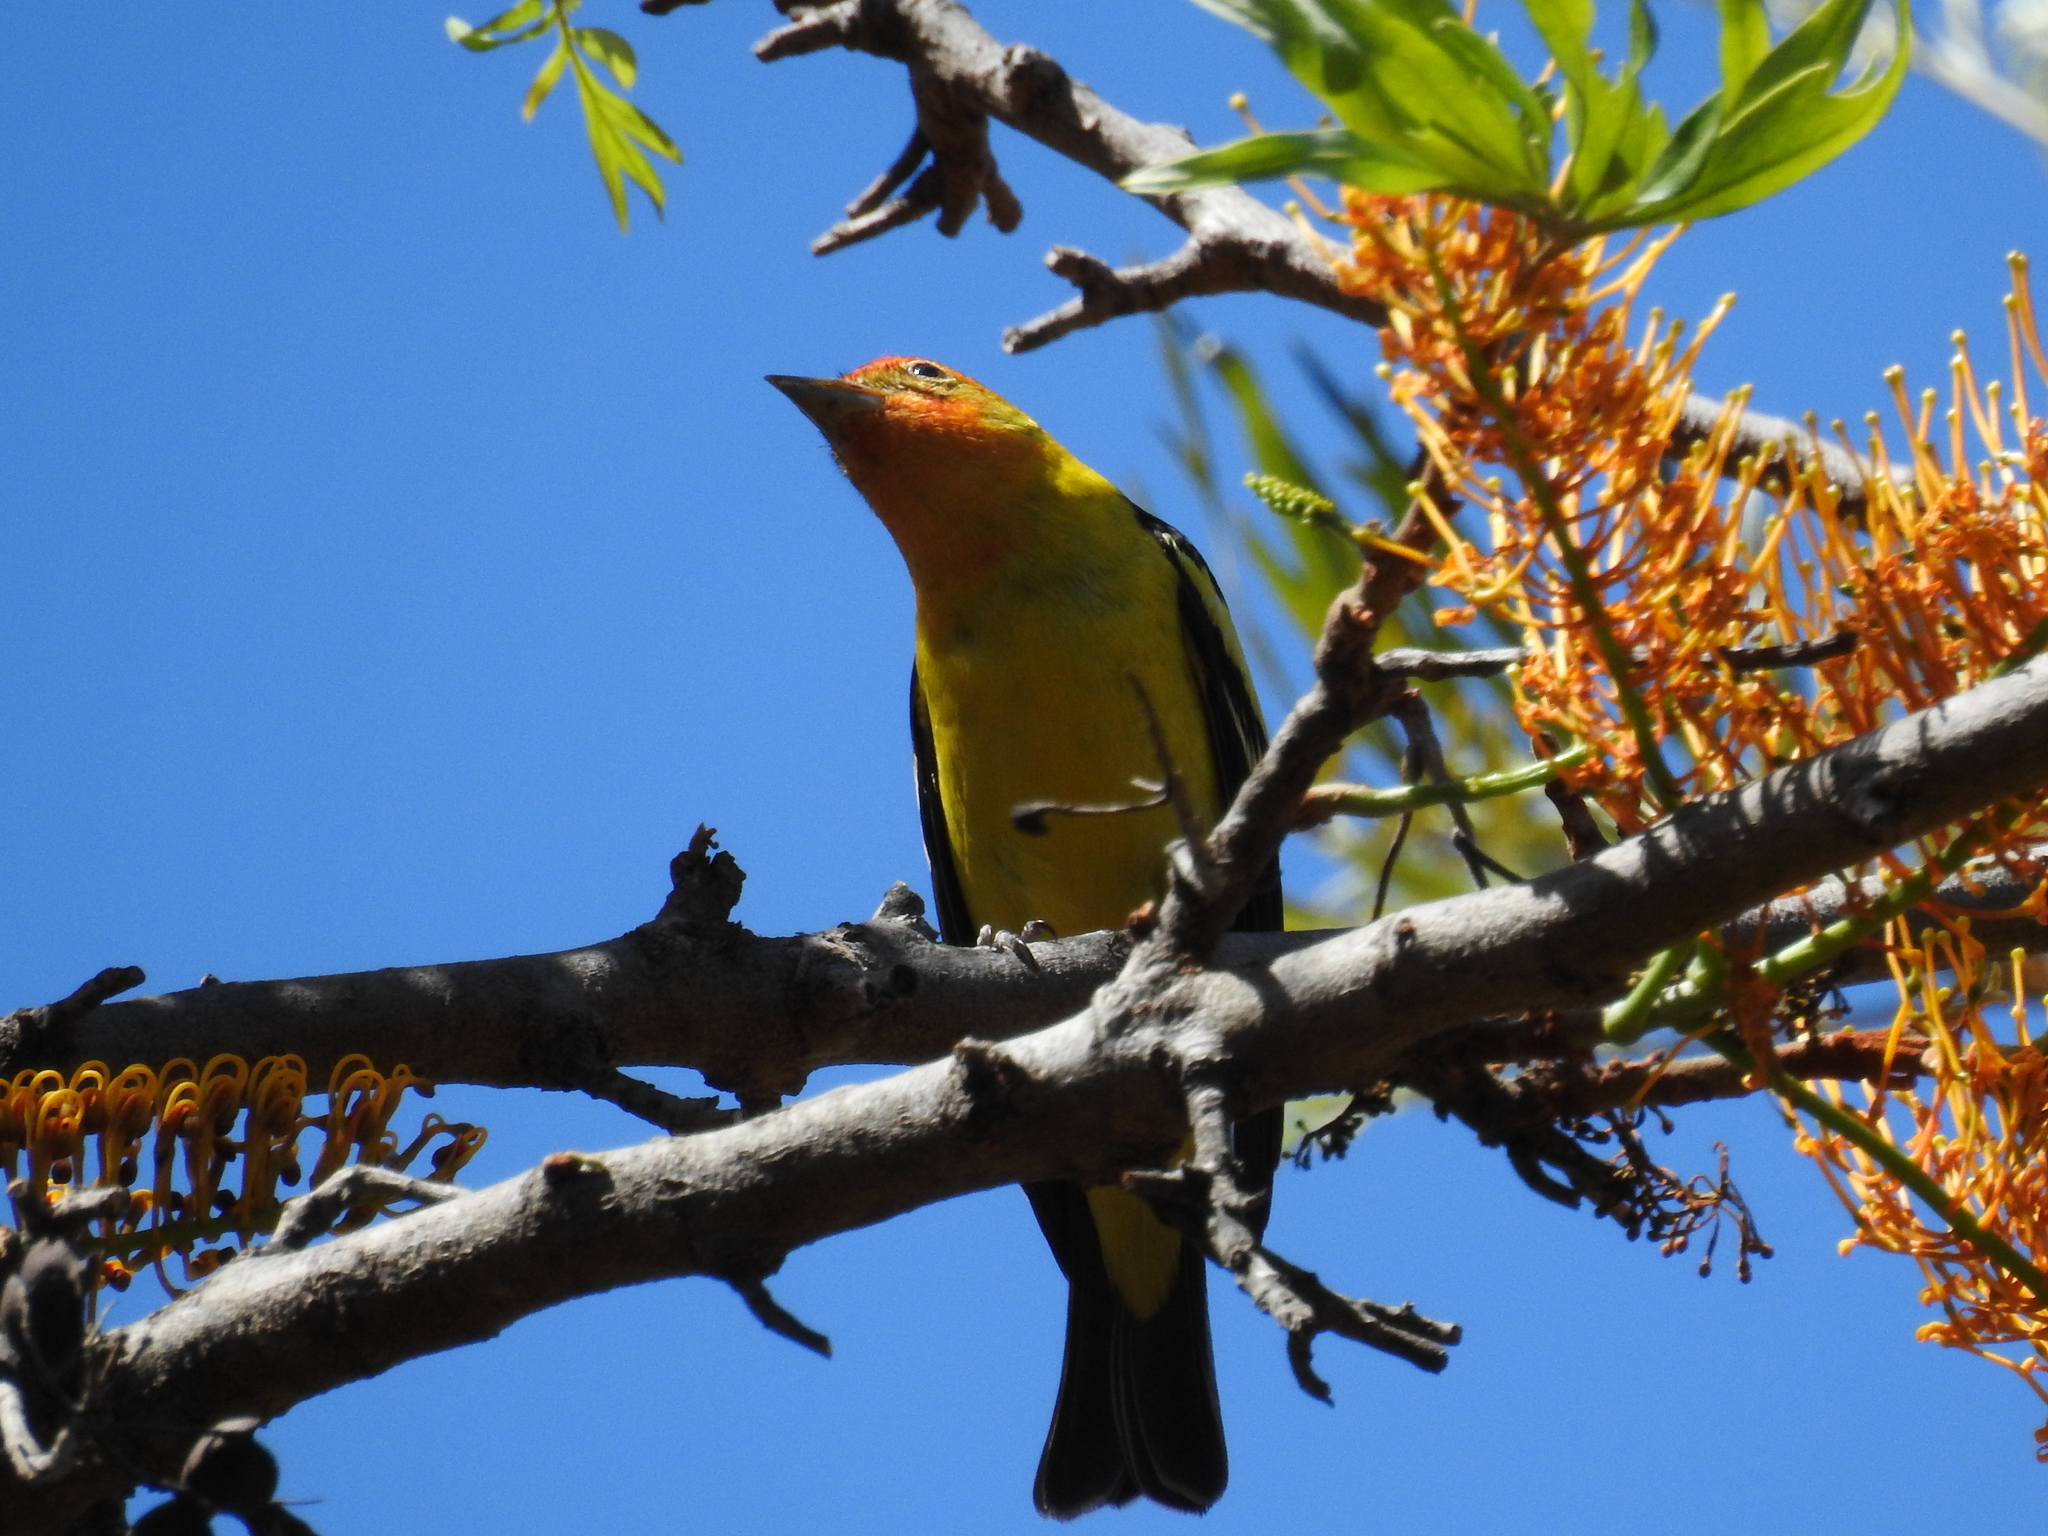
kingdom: Animalia
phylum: Chordata
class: Aves
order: Passeriformes
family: Cardinalidae
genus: Piranga
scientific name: Piranga ludoviciana
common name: Western tanager
